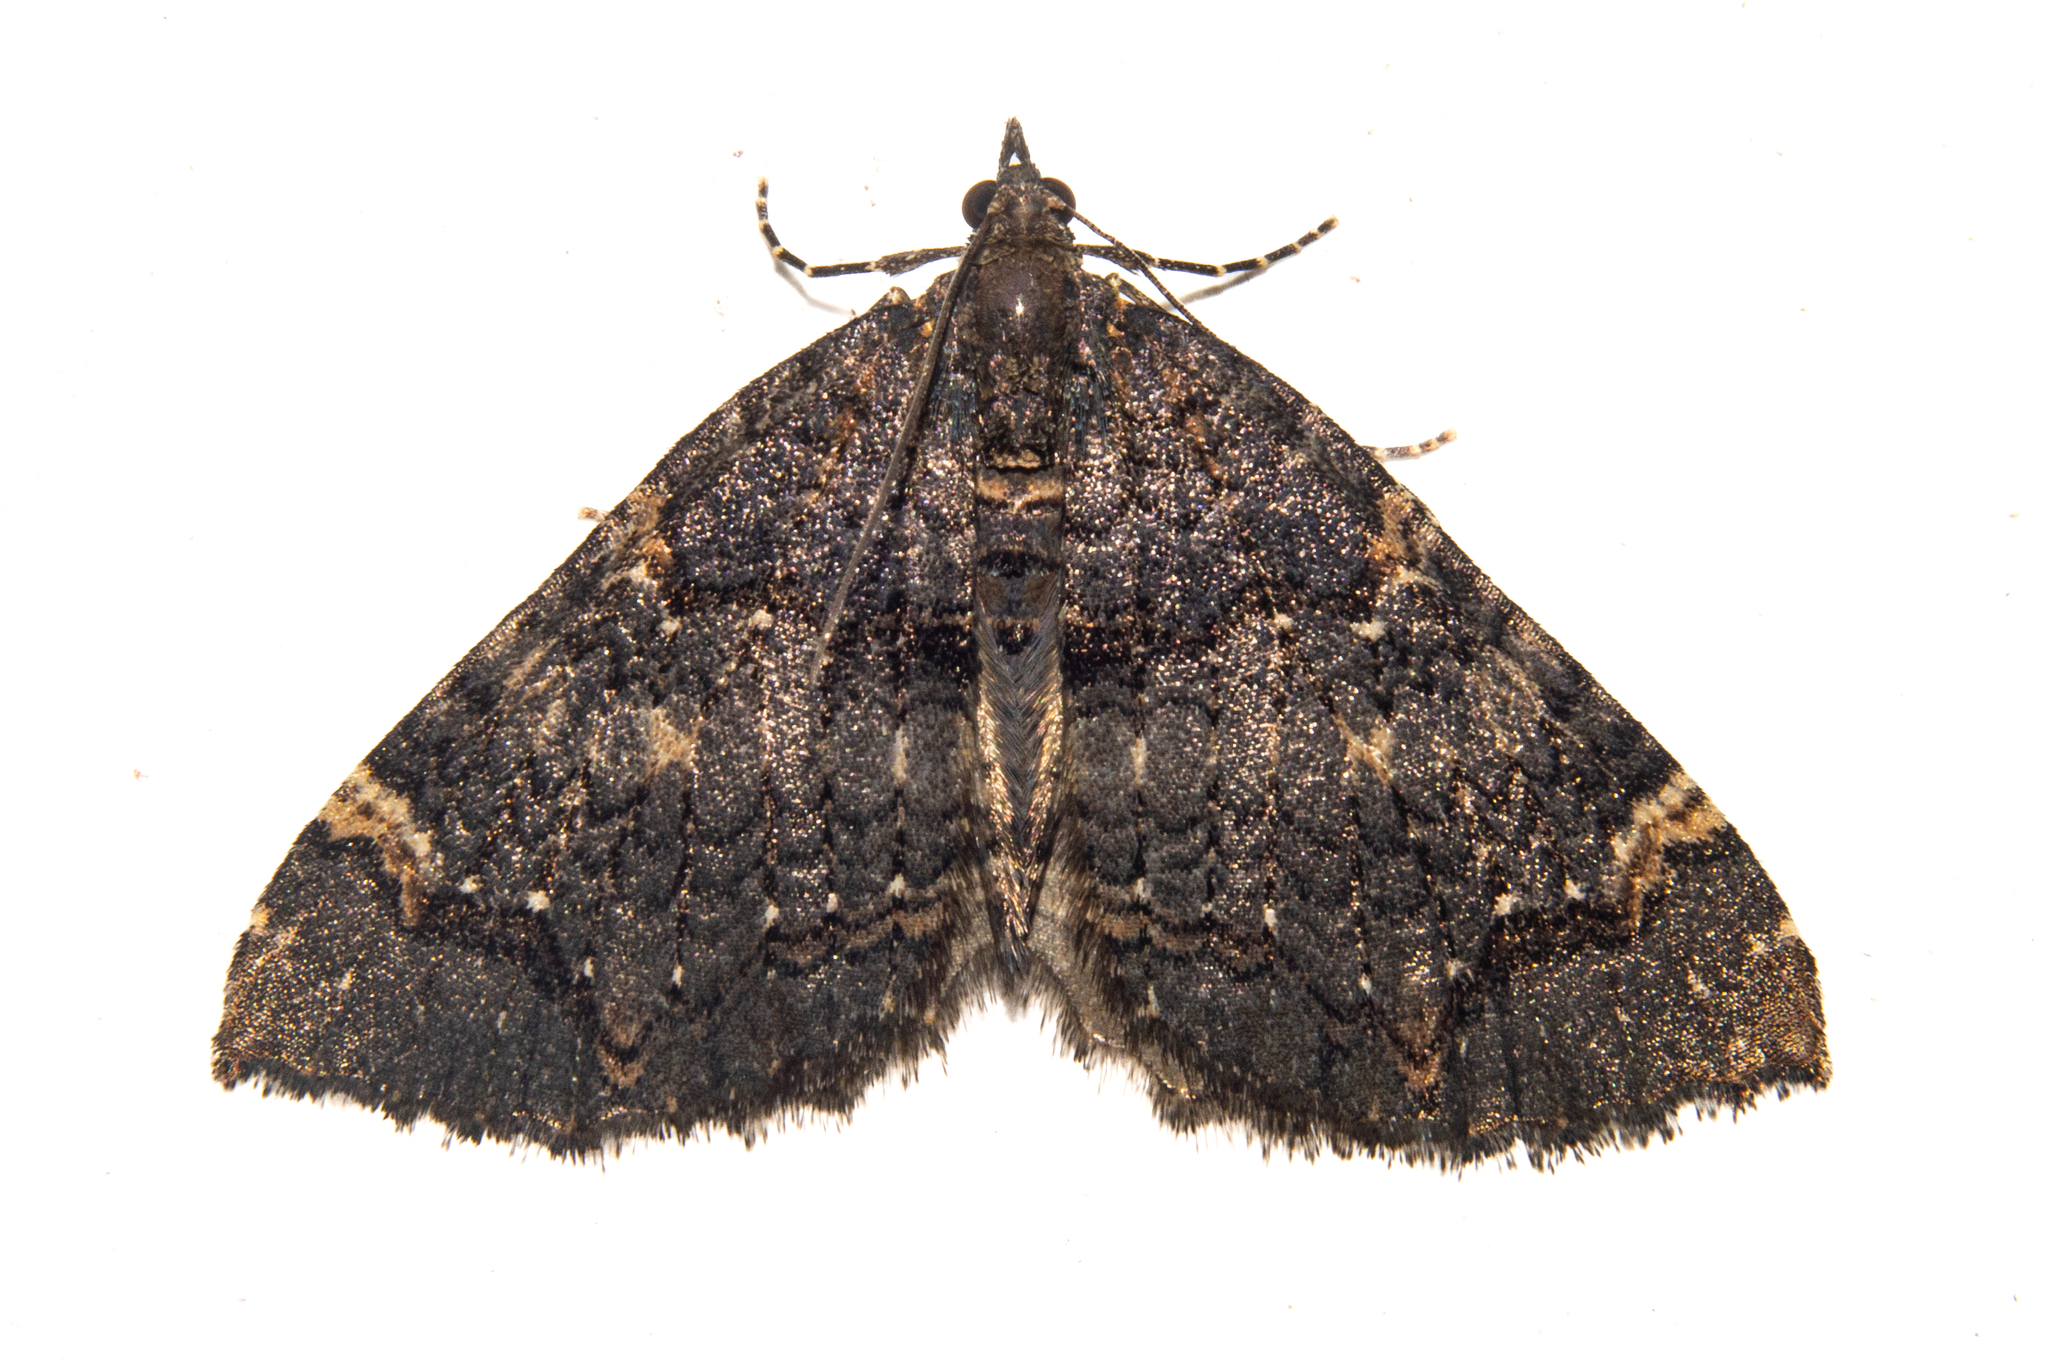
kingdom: Animalia
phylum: Arthropoda
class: Insecta
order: Lepidoptera
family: Geometridae
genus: Hydriomena
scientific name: Hydriomena arida
